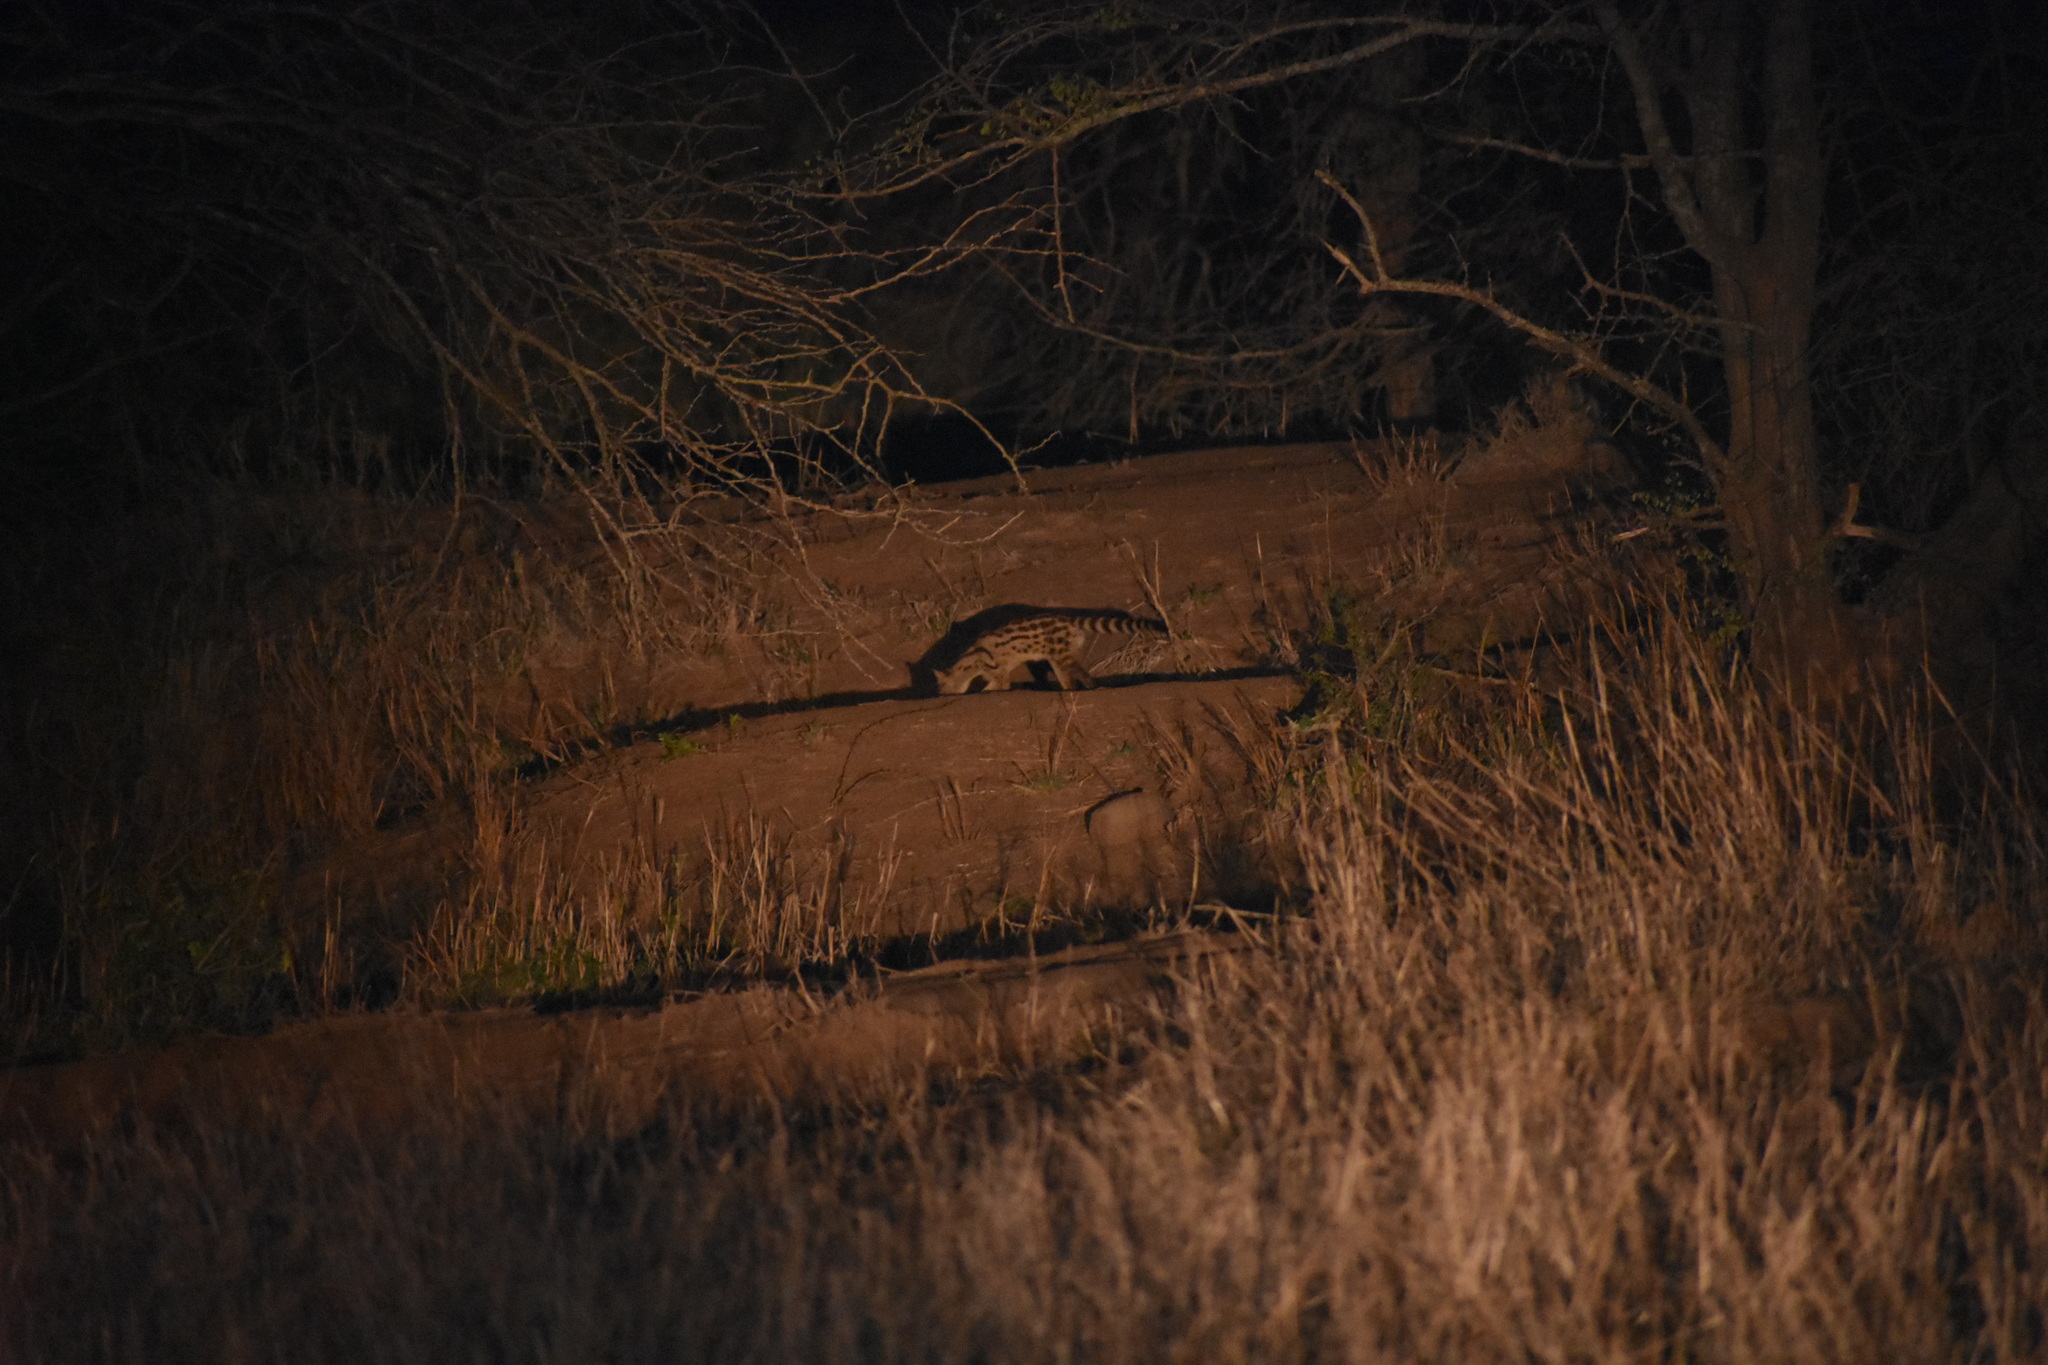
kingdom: Animalia
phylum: Chordata
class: Mammalia
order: Carnivora
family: Viverridae
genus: Genetta
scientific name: Genetta maculata
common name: Rusty-spotted genet
